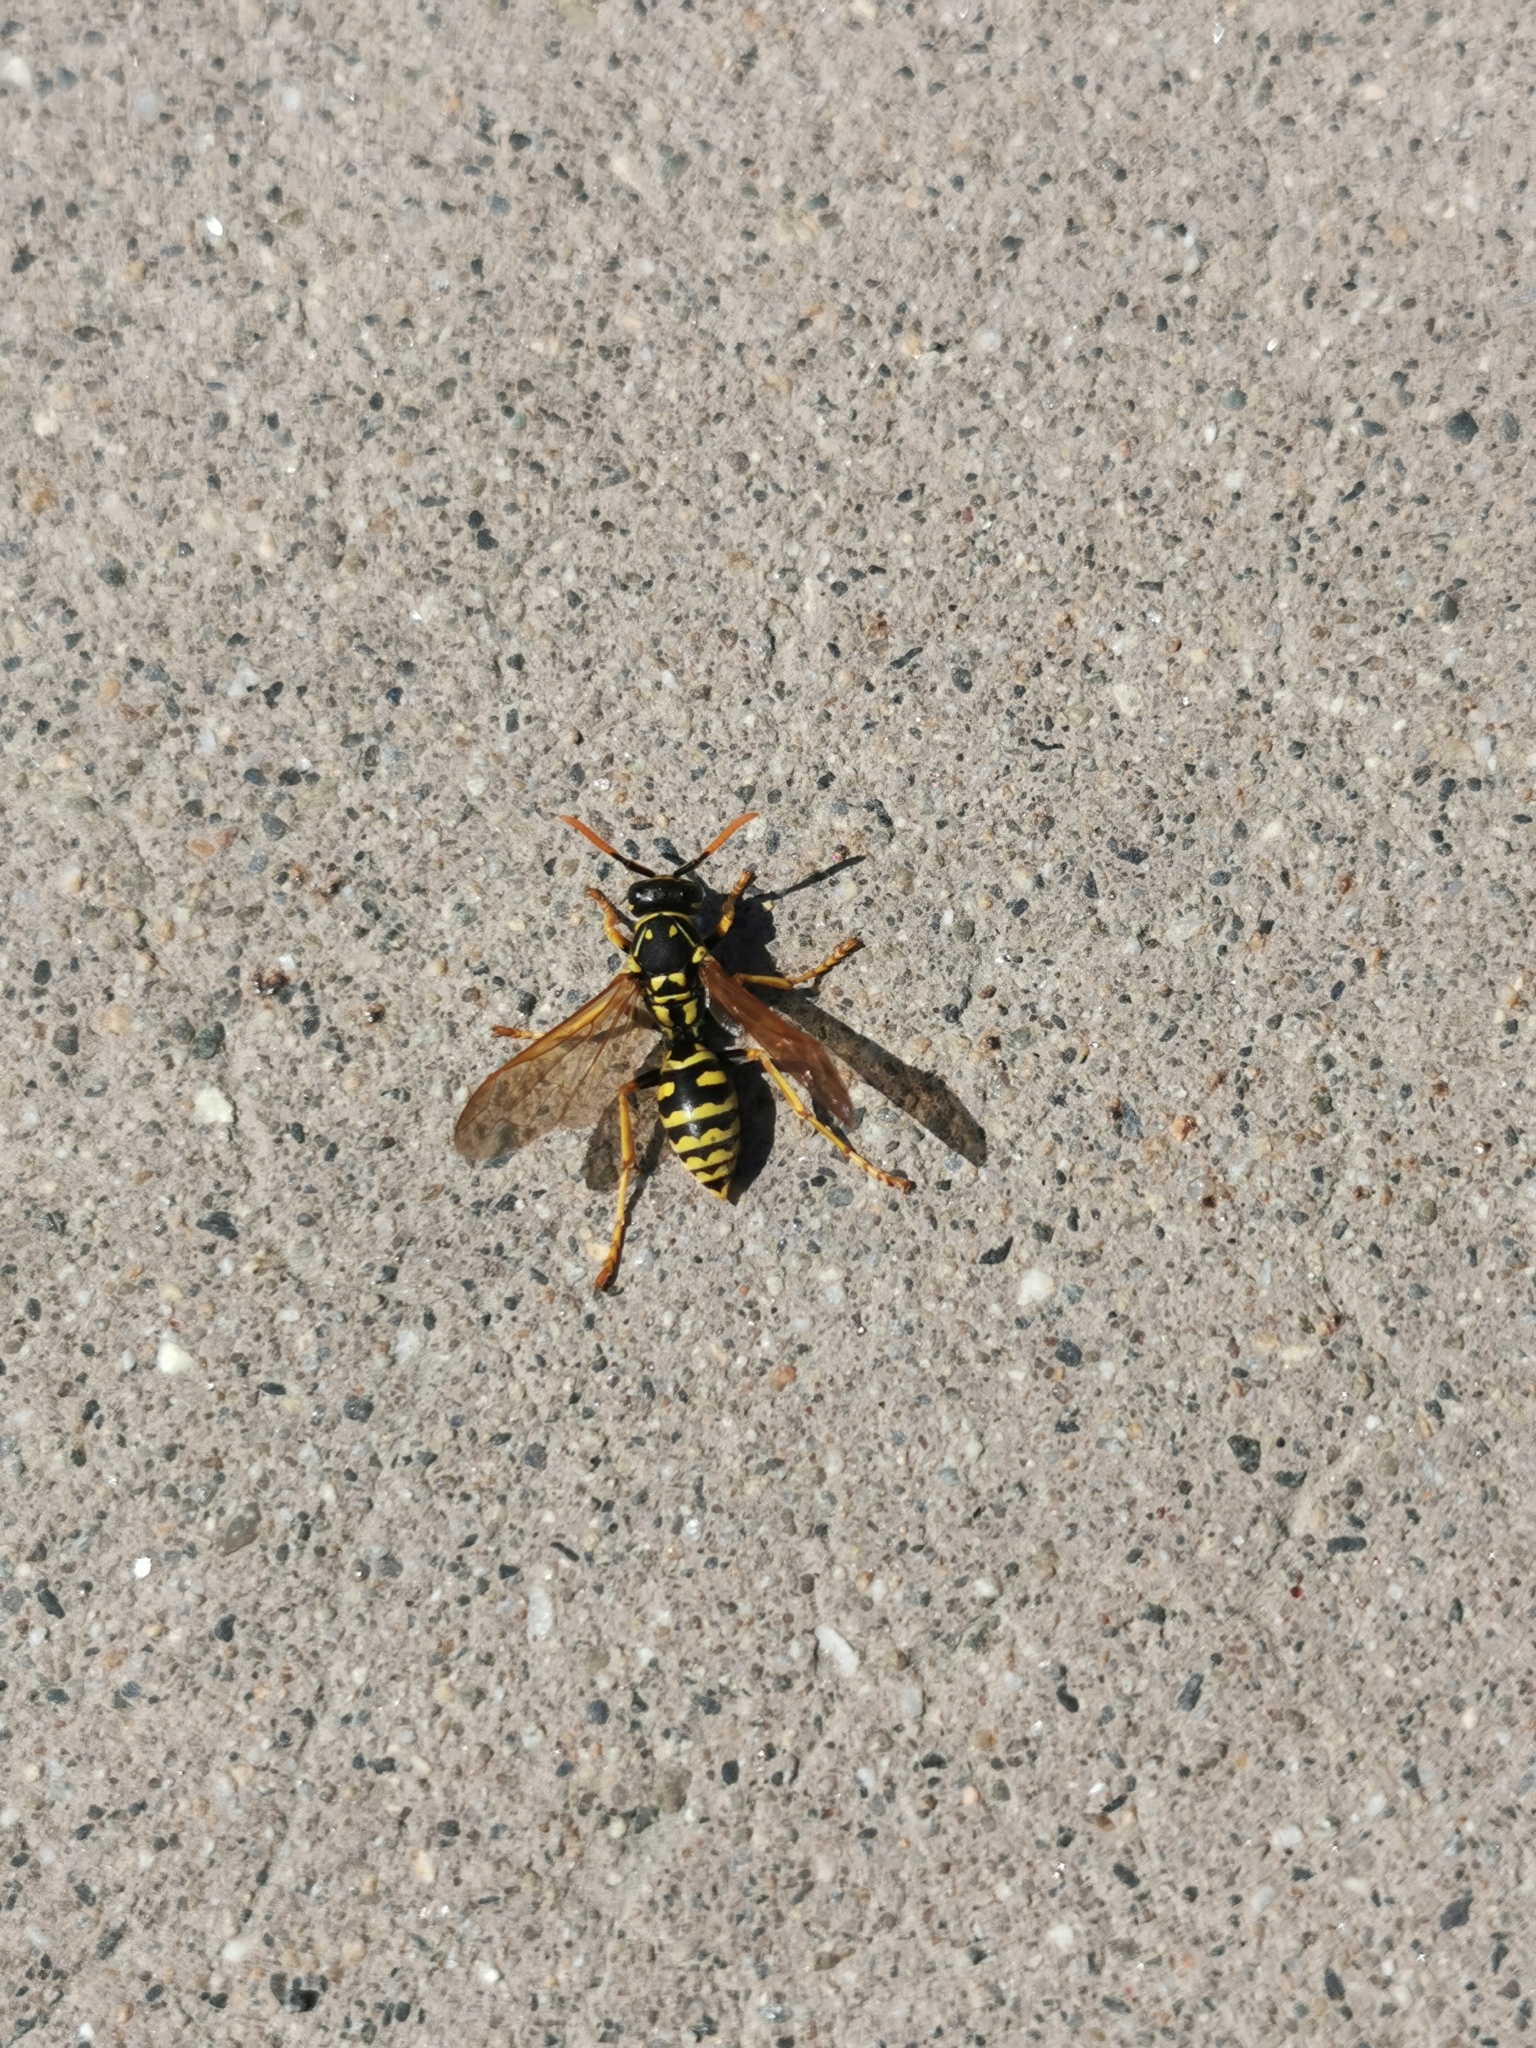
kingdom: Animalia
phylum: Arthropoda
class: Insecta
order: Hymenoptera
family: Eumenidae
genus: Polistes
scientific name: Polistes dominula
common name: Paper wasp
